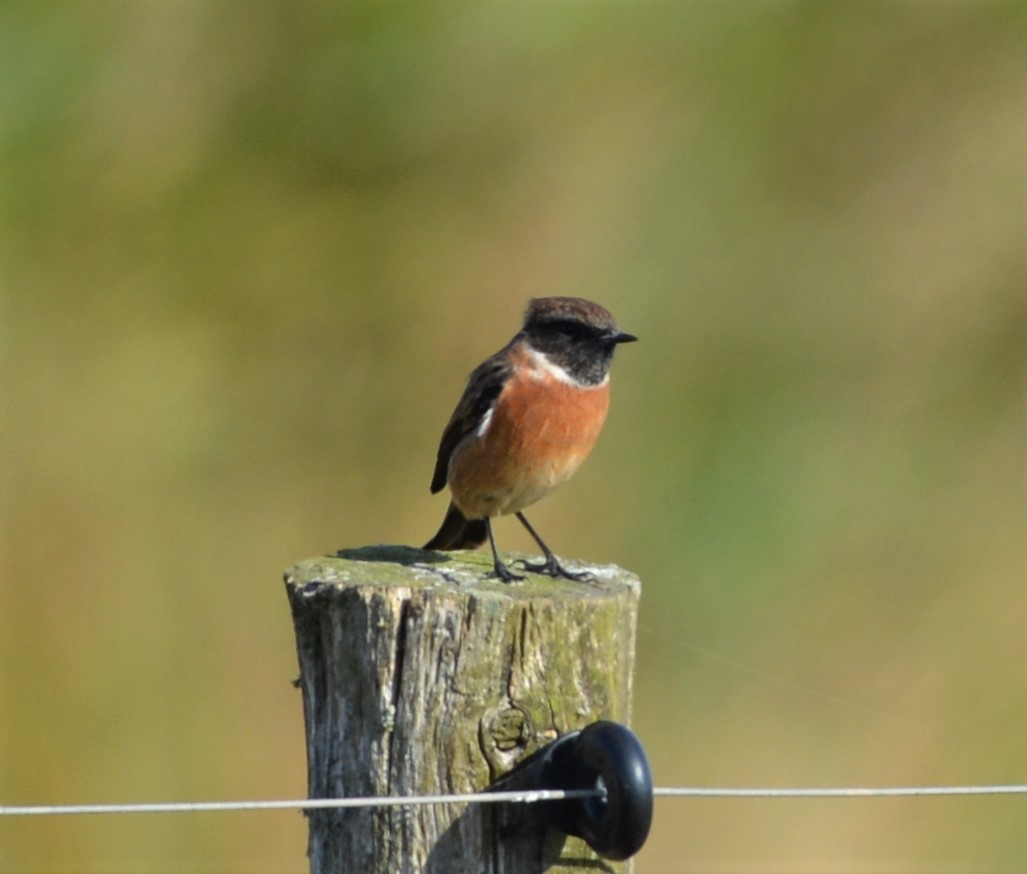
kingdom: Animalia
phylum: Chordata
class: Aves
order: Passeriformes
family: Muscicapidae
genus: Saxicola
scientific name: Saxicola rubicola
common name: European stonechat
